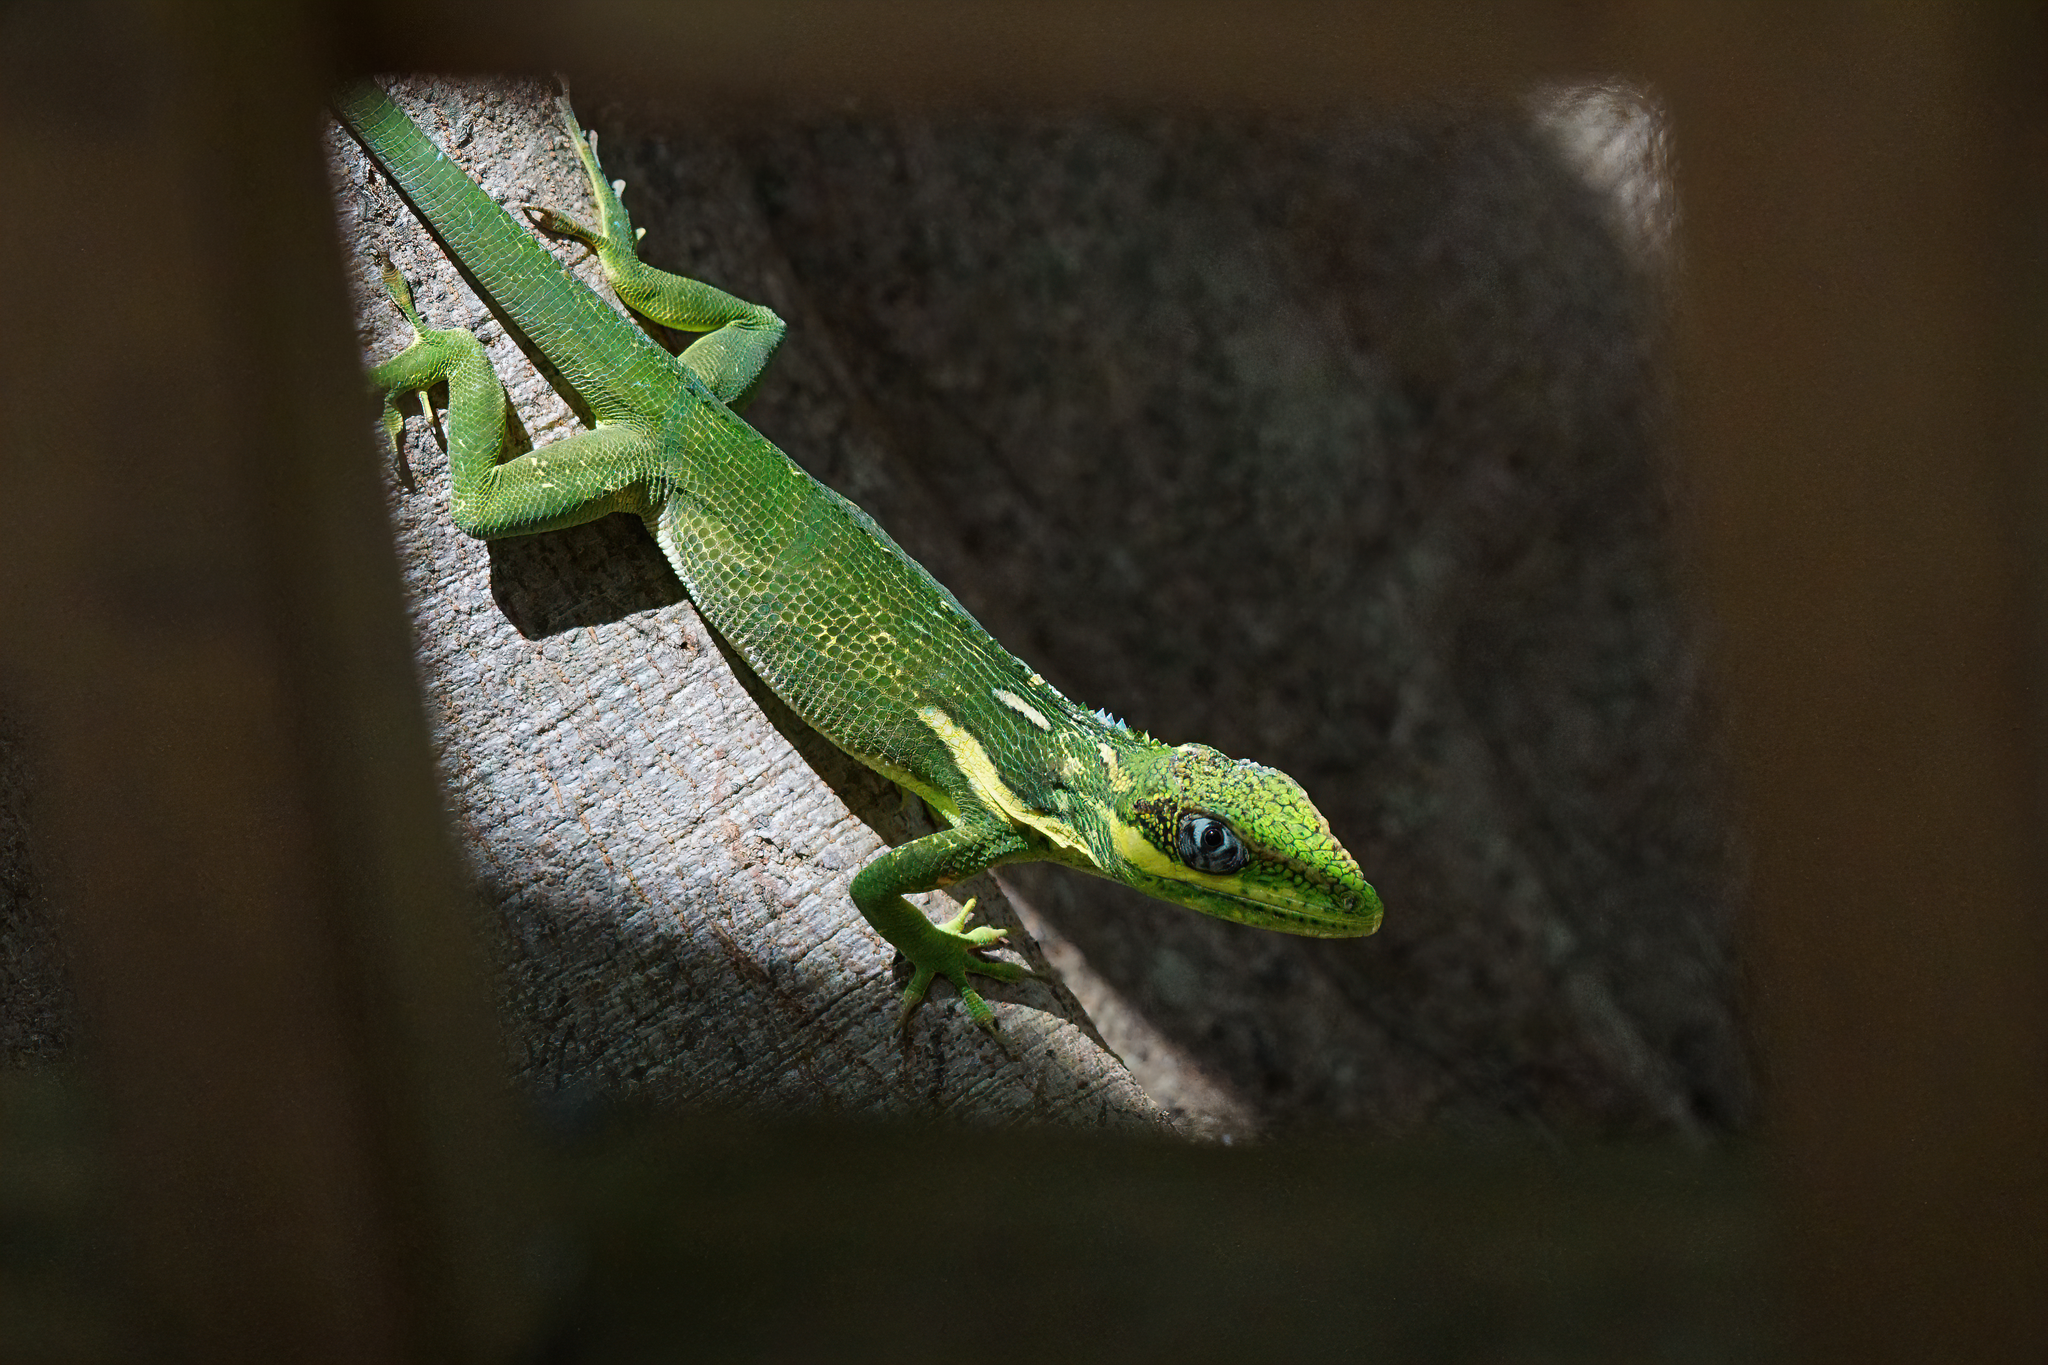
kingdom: Animalia
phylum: Chordata
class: Squamata
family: Dactyloidae
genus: Anolis
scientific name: Anolis equestris
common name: Knight anole
